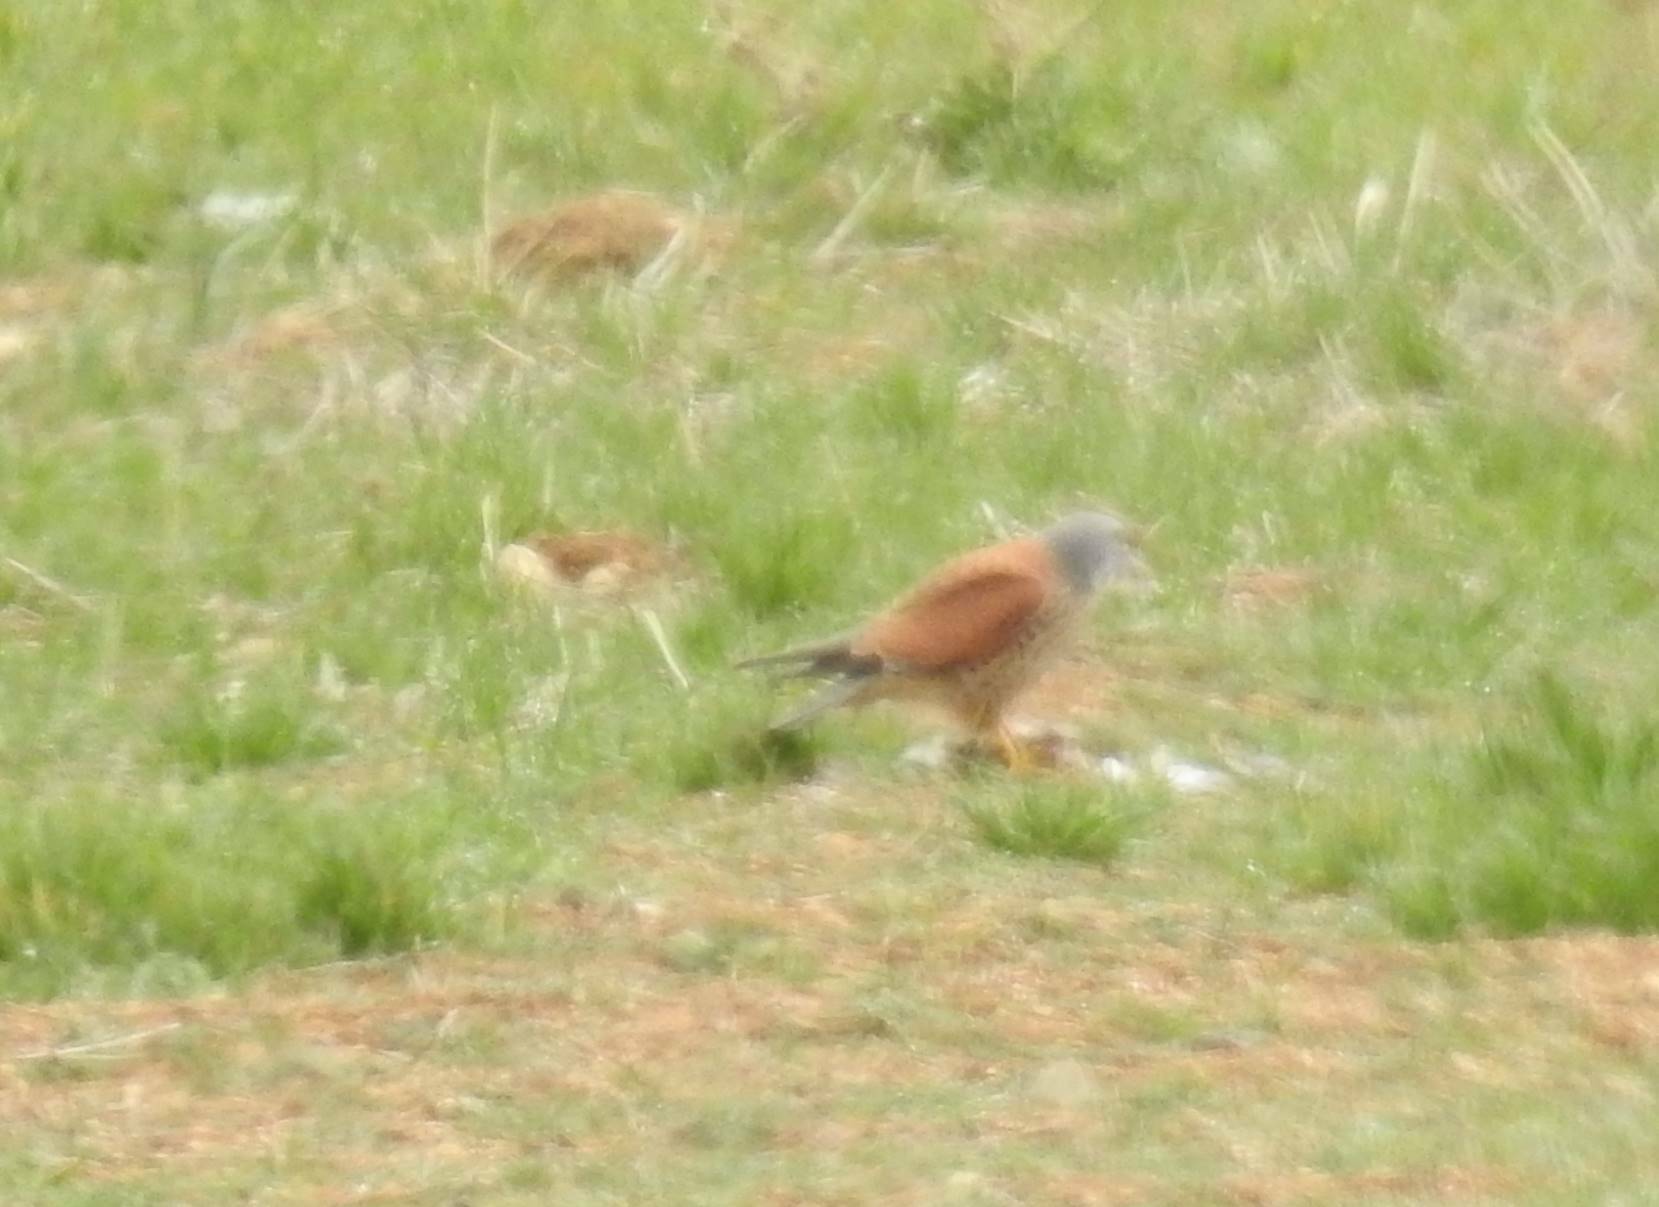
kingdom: Animalia
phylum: Chordata
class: Aves
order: Falconiformes
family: Falconidae
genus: Falco
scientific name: Falco tinnunculus
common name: Common kestrel
